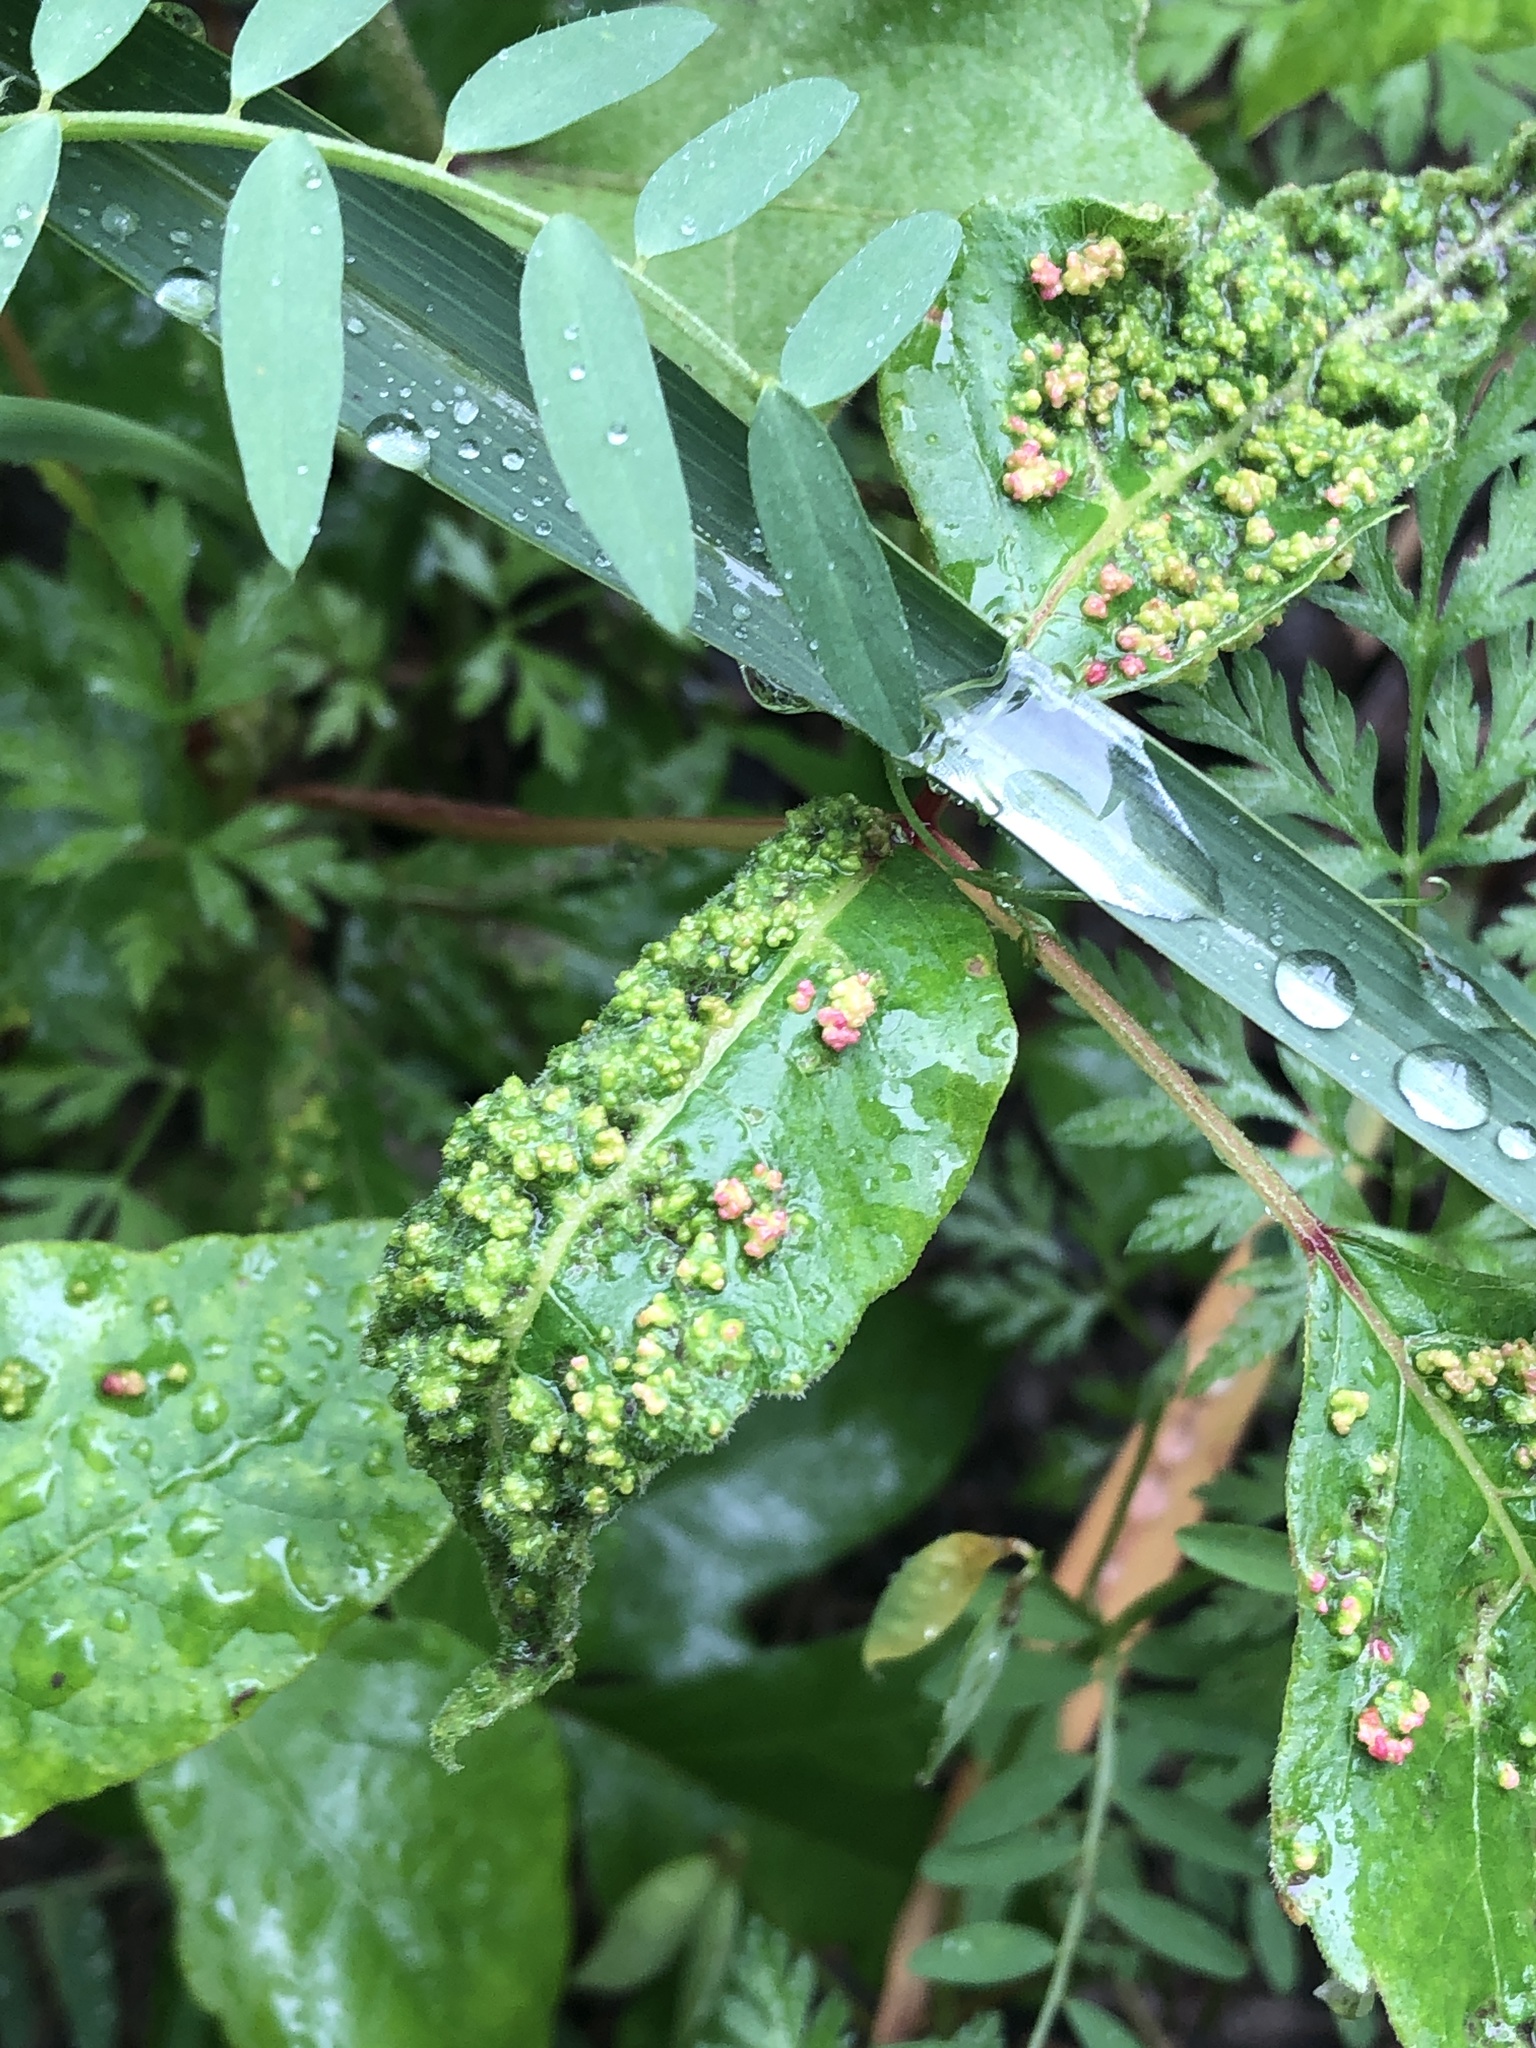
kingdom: Animalia
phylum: Arthropoda
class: Arachnida
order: Trombidiformes
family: Eriophyidae
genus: Aculops
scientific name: Aculops
